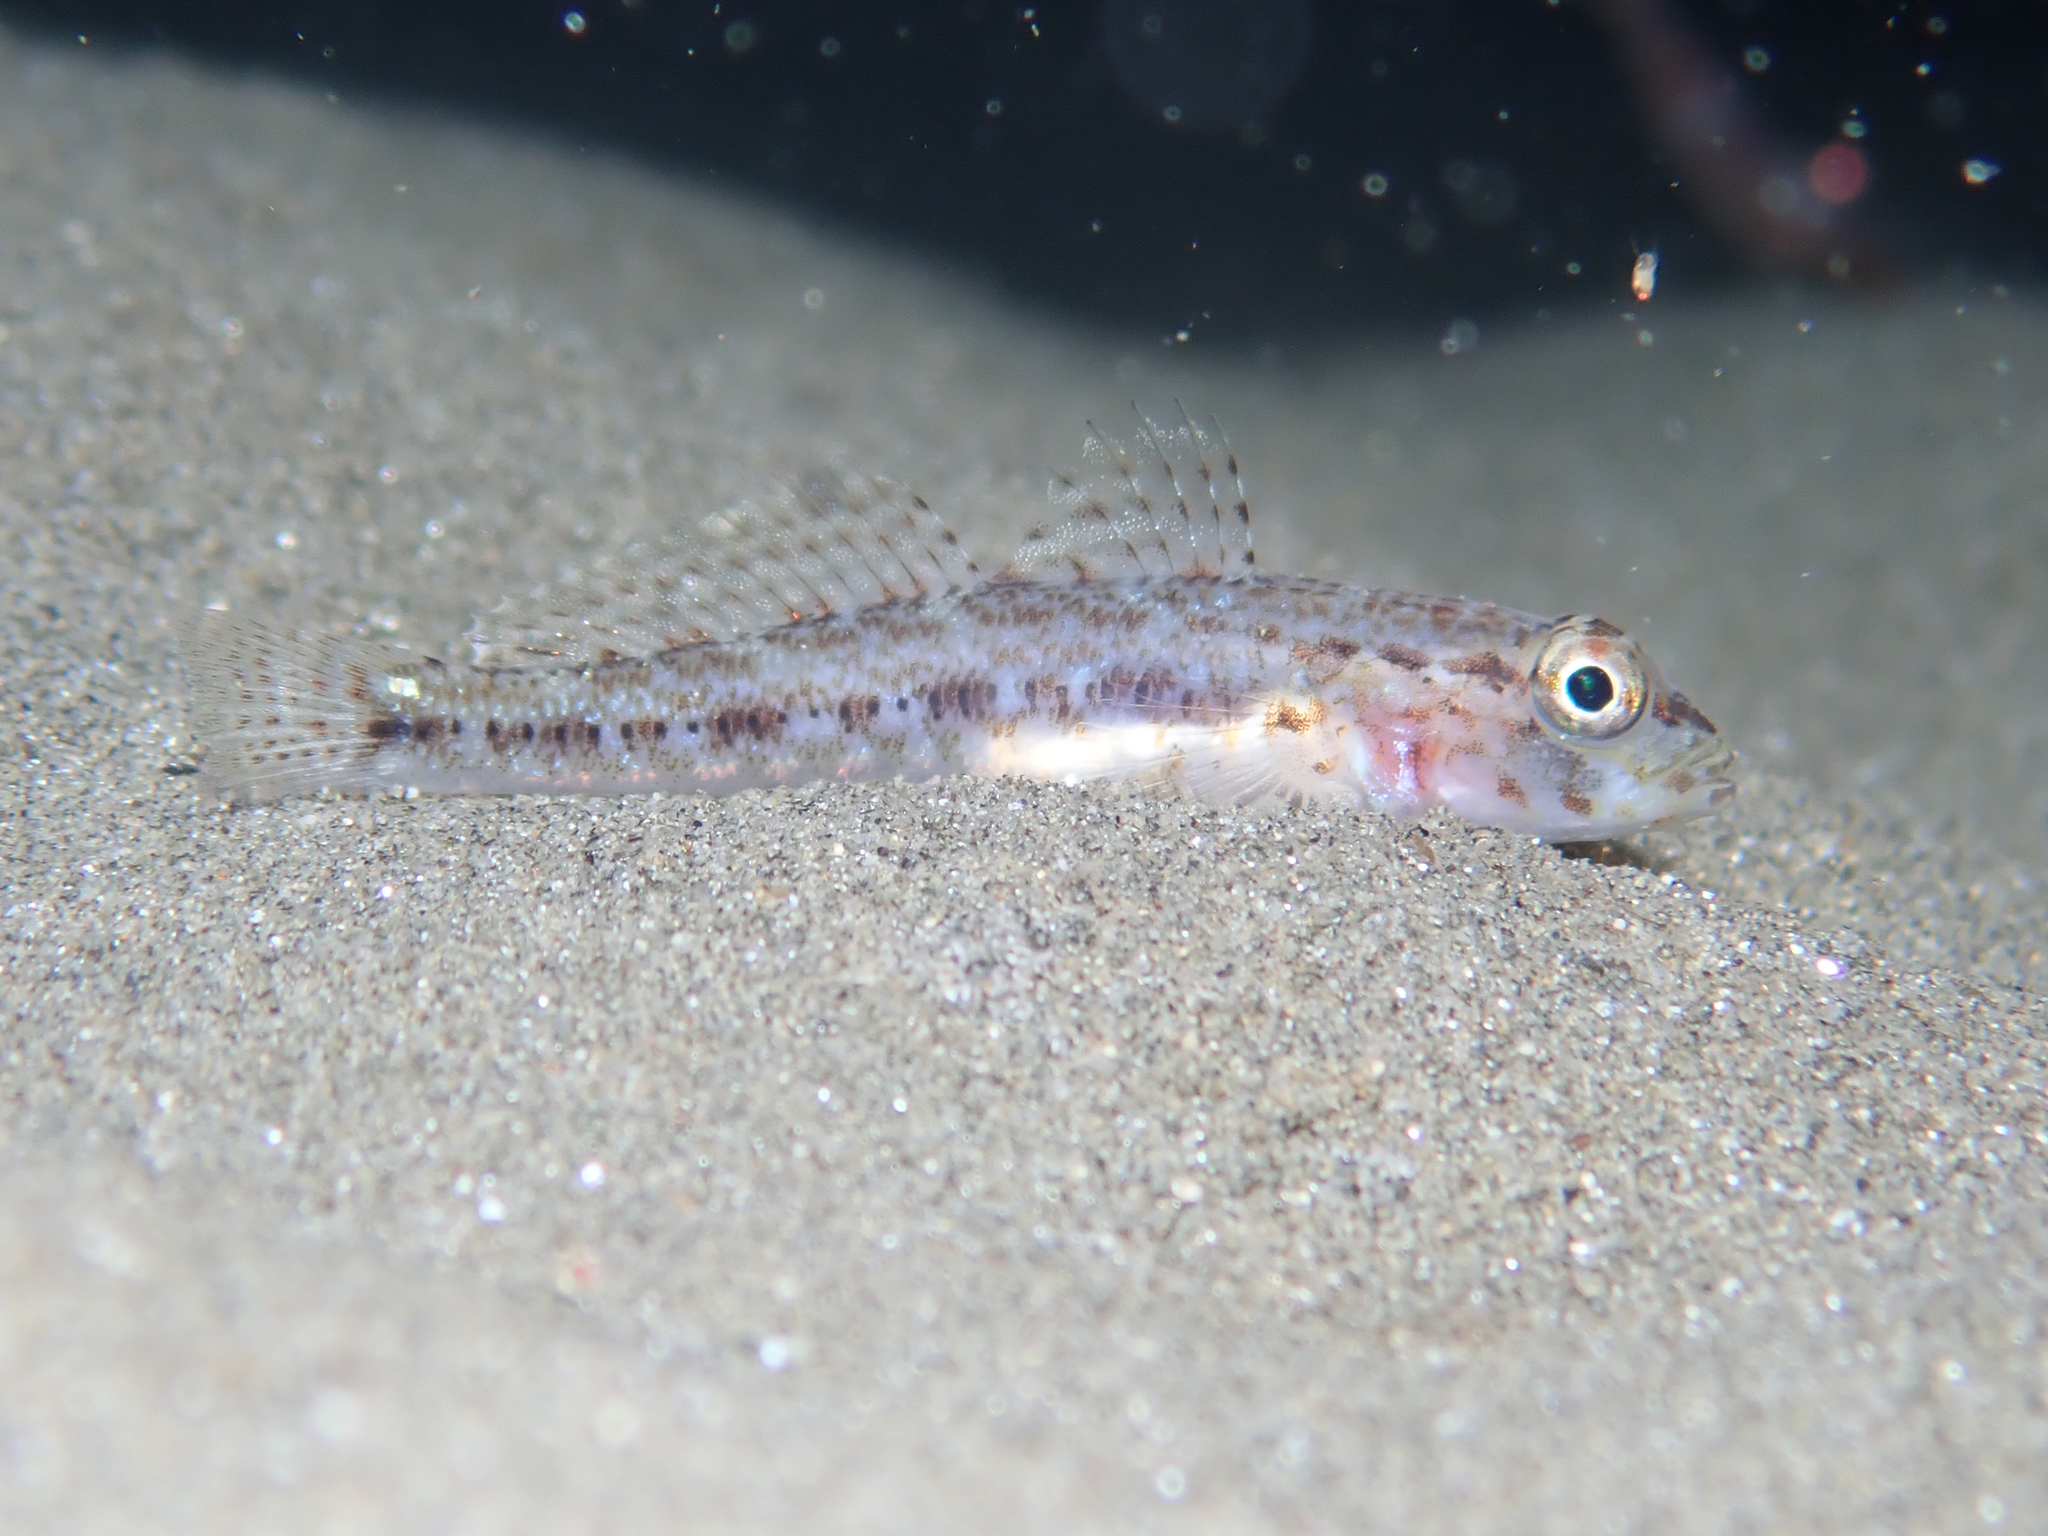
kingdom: Animalia
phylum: Chordata
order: Perciformes
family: Gobiidae
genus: Gobius
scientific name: Gobius geniporus
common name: Slender goby
